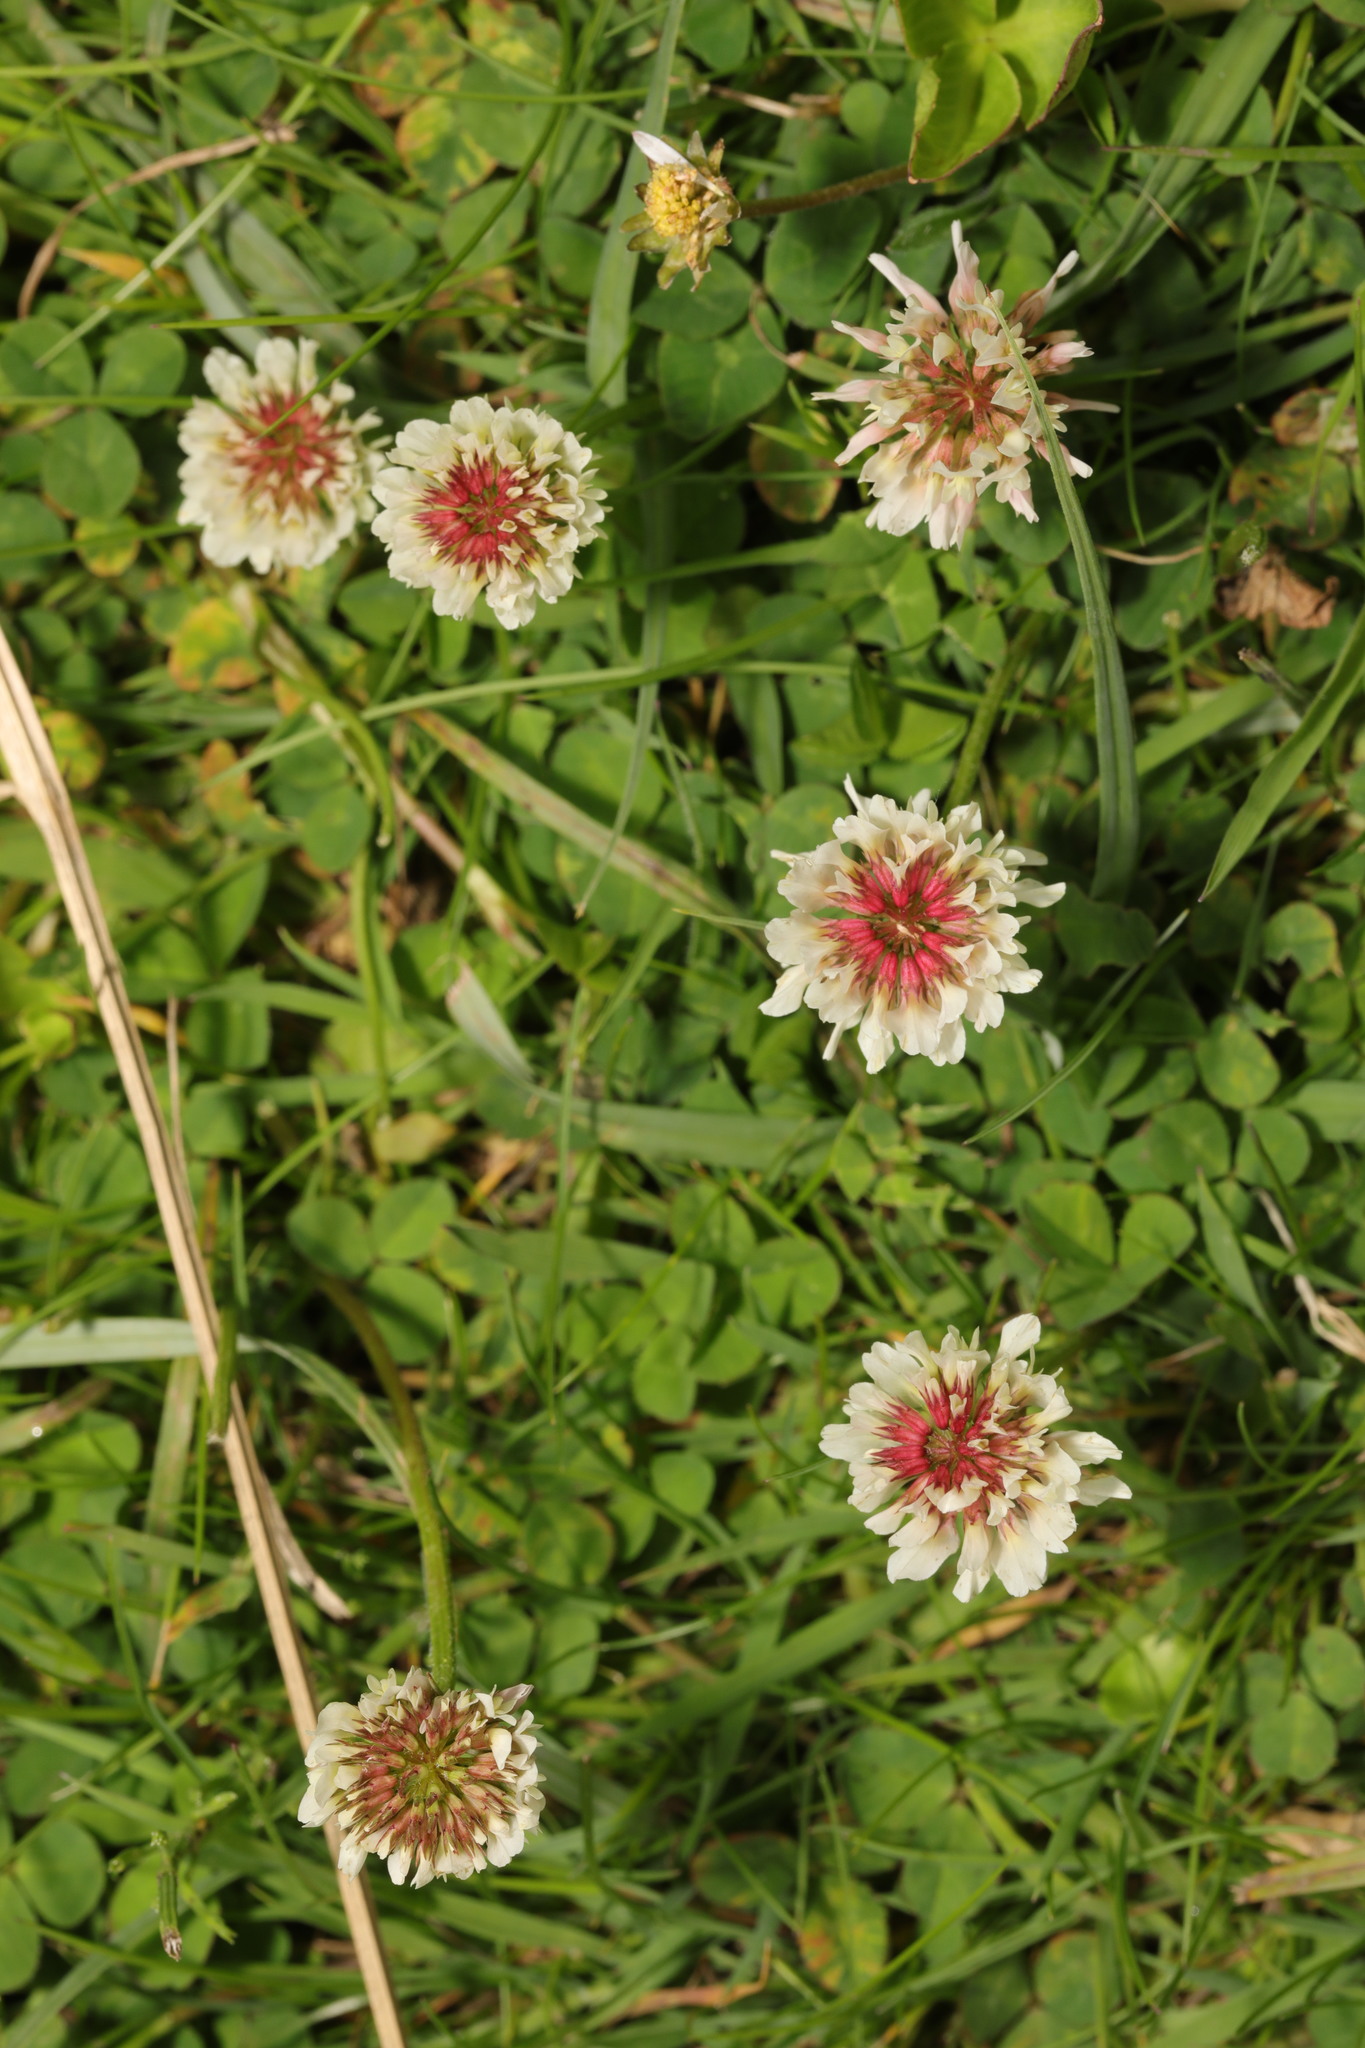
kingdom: Plantae
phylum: Tracheophyta
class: Magnoliopsida
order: Fabales
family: Fabaceae
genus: Trifolium
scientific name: Trifolium repens
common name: White clover
